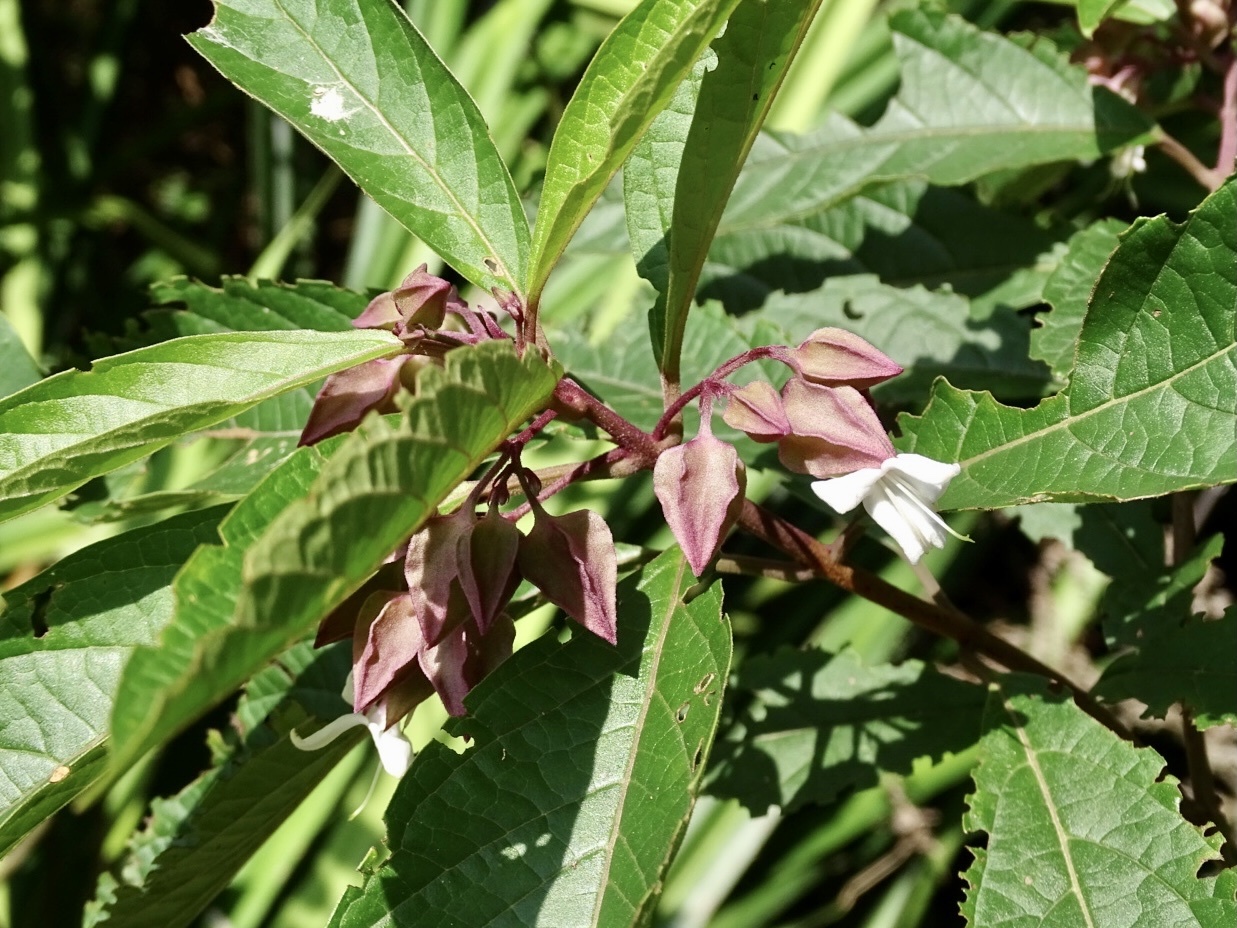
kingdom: Plantae
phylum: Tracheophyta
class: Magnoliopsida
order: Lamiales
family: Lamiaceae
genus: Clerodendrum
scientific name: Clerodendrum fortunatum
